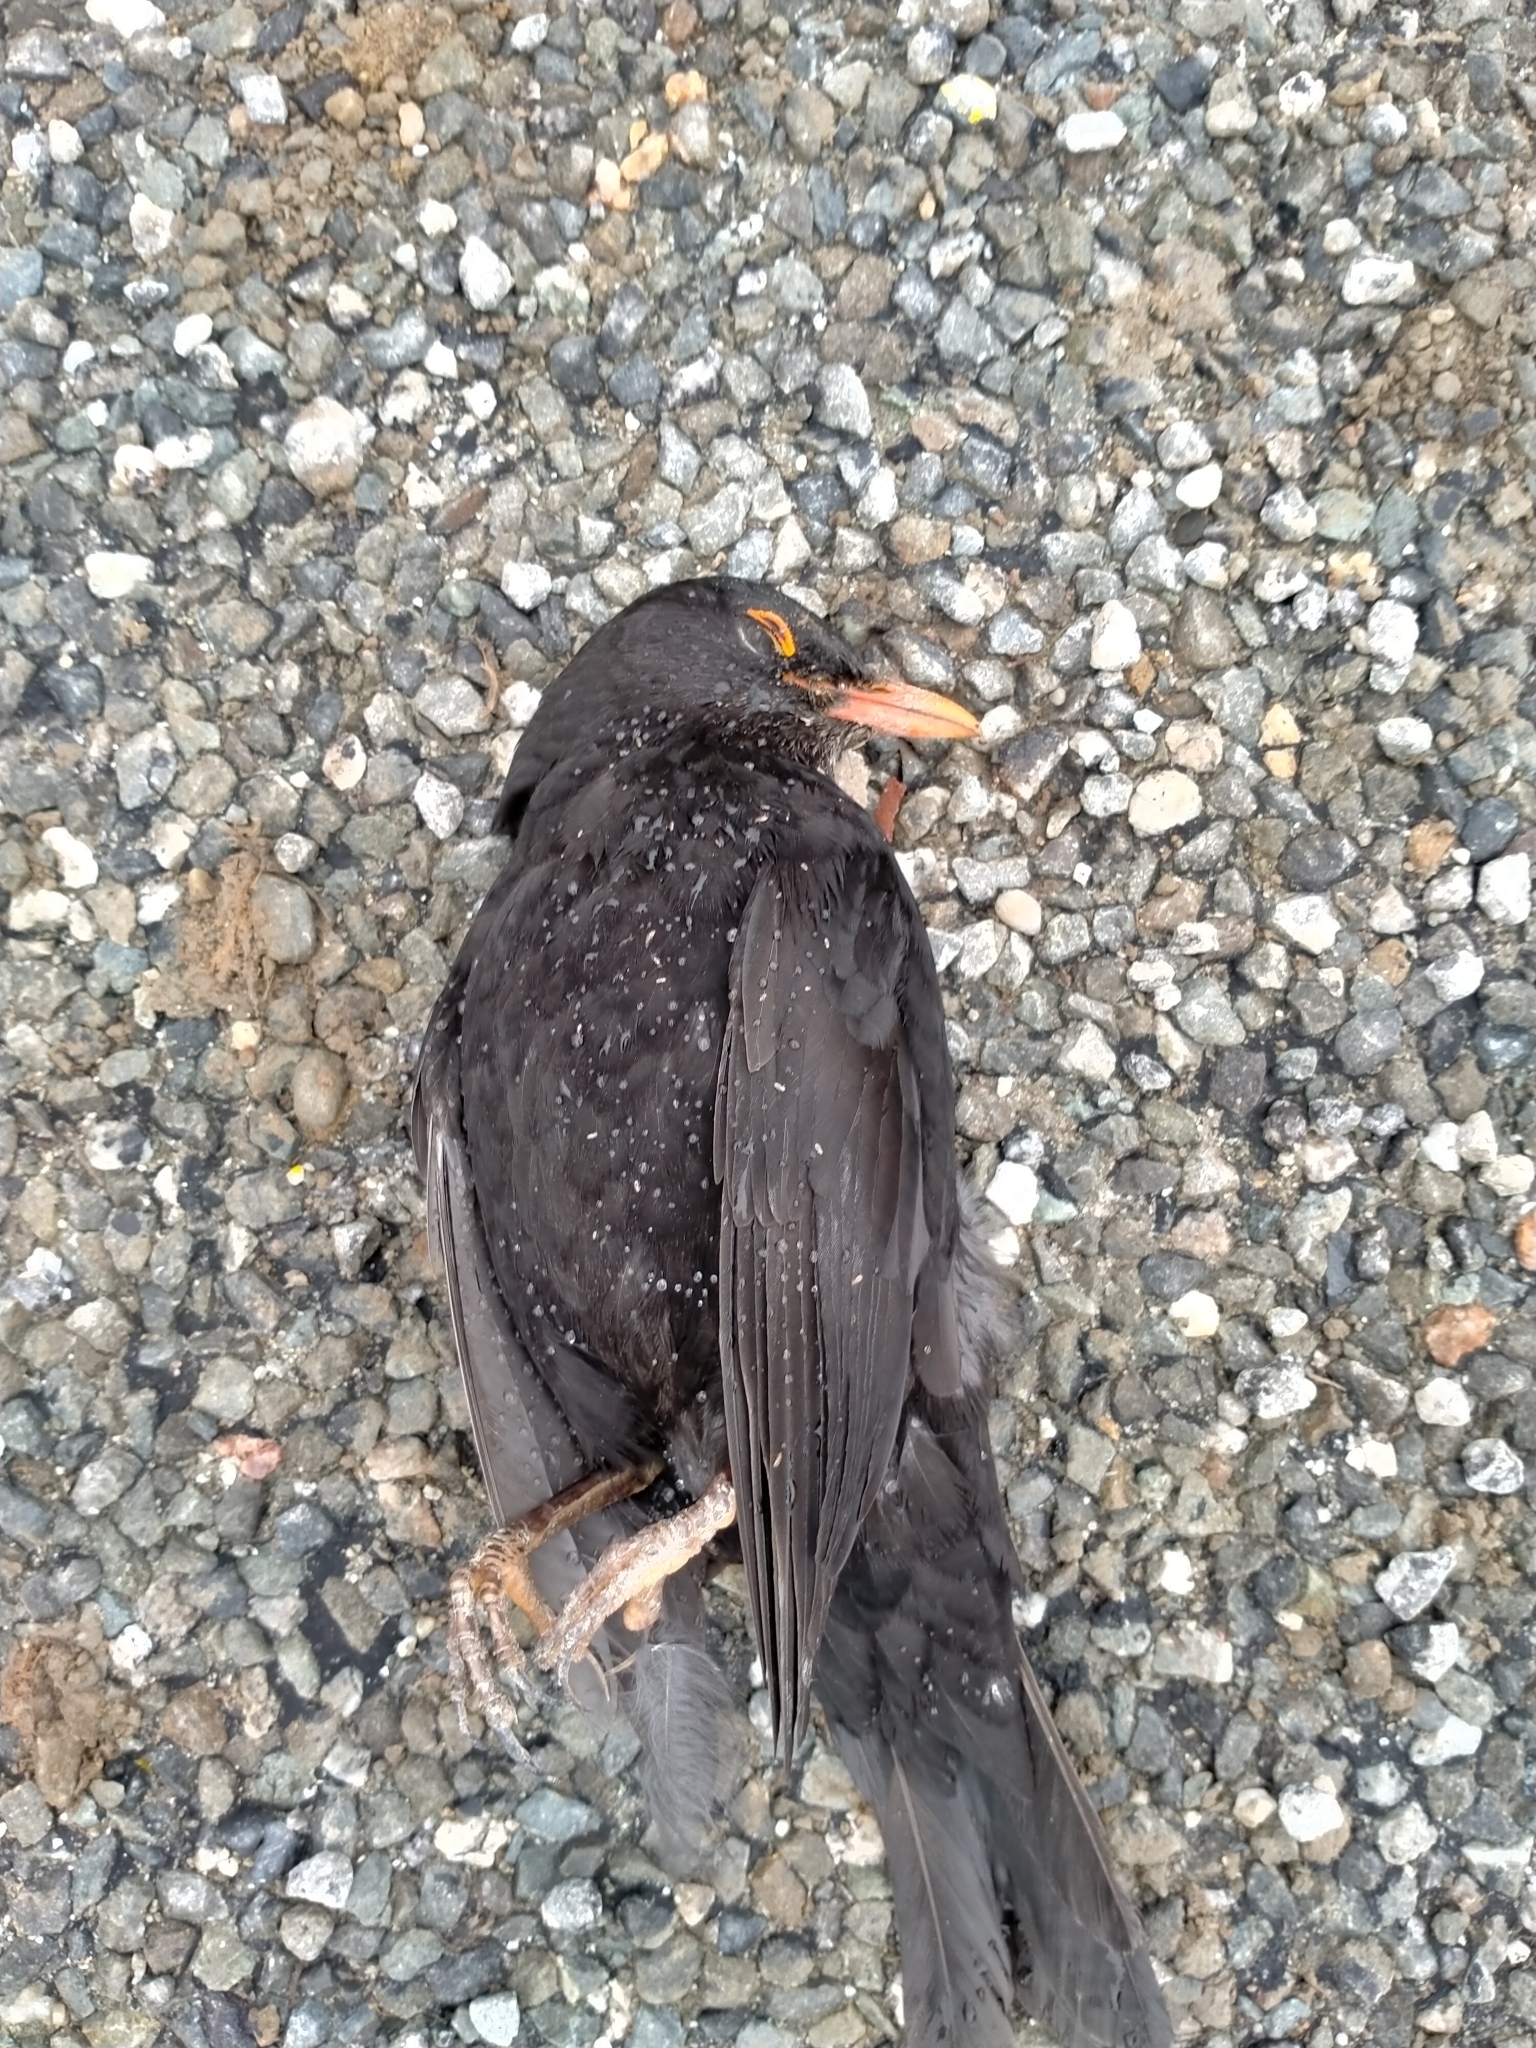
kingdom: Animalia
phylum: Chordata
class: Aves
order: Passeriformes
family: Turdidae
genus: Turdus
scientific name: Turdus merula
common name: Common blackbird
